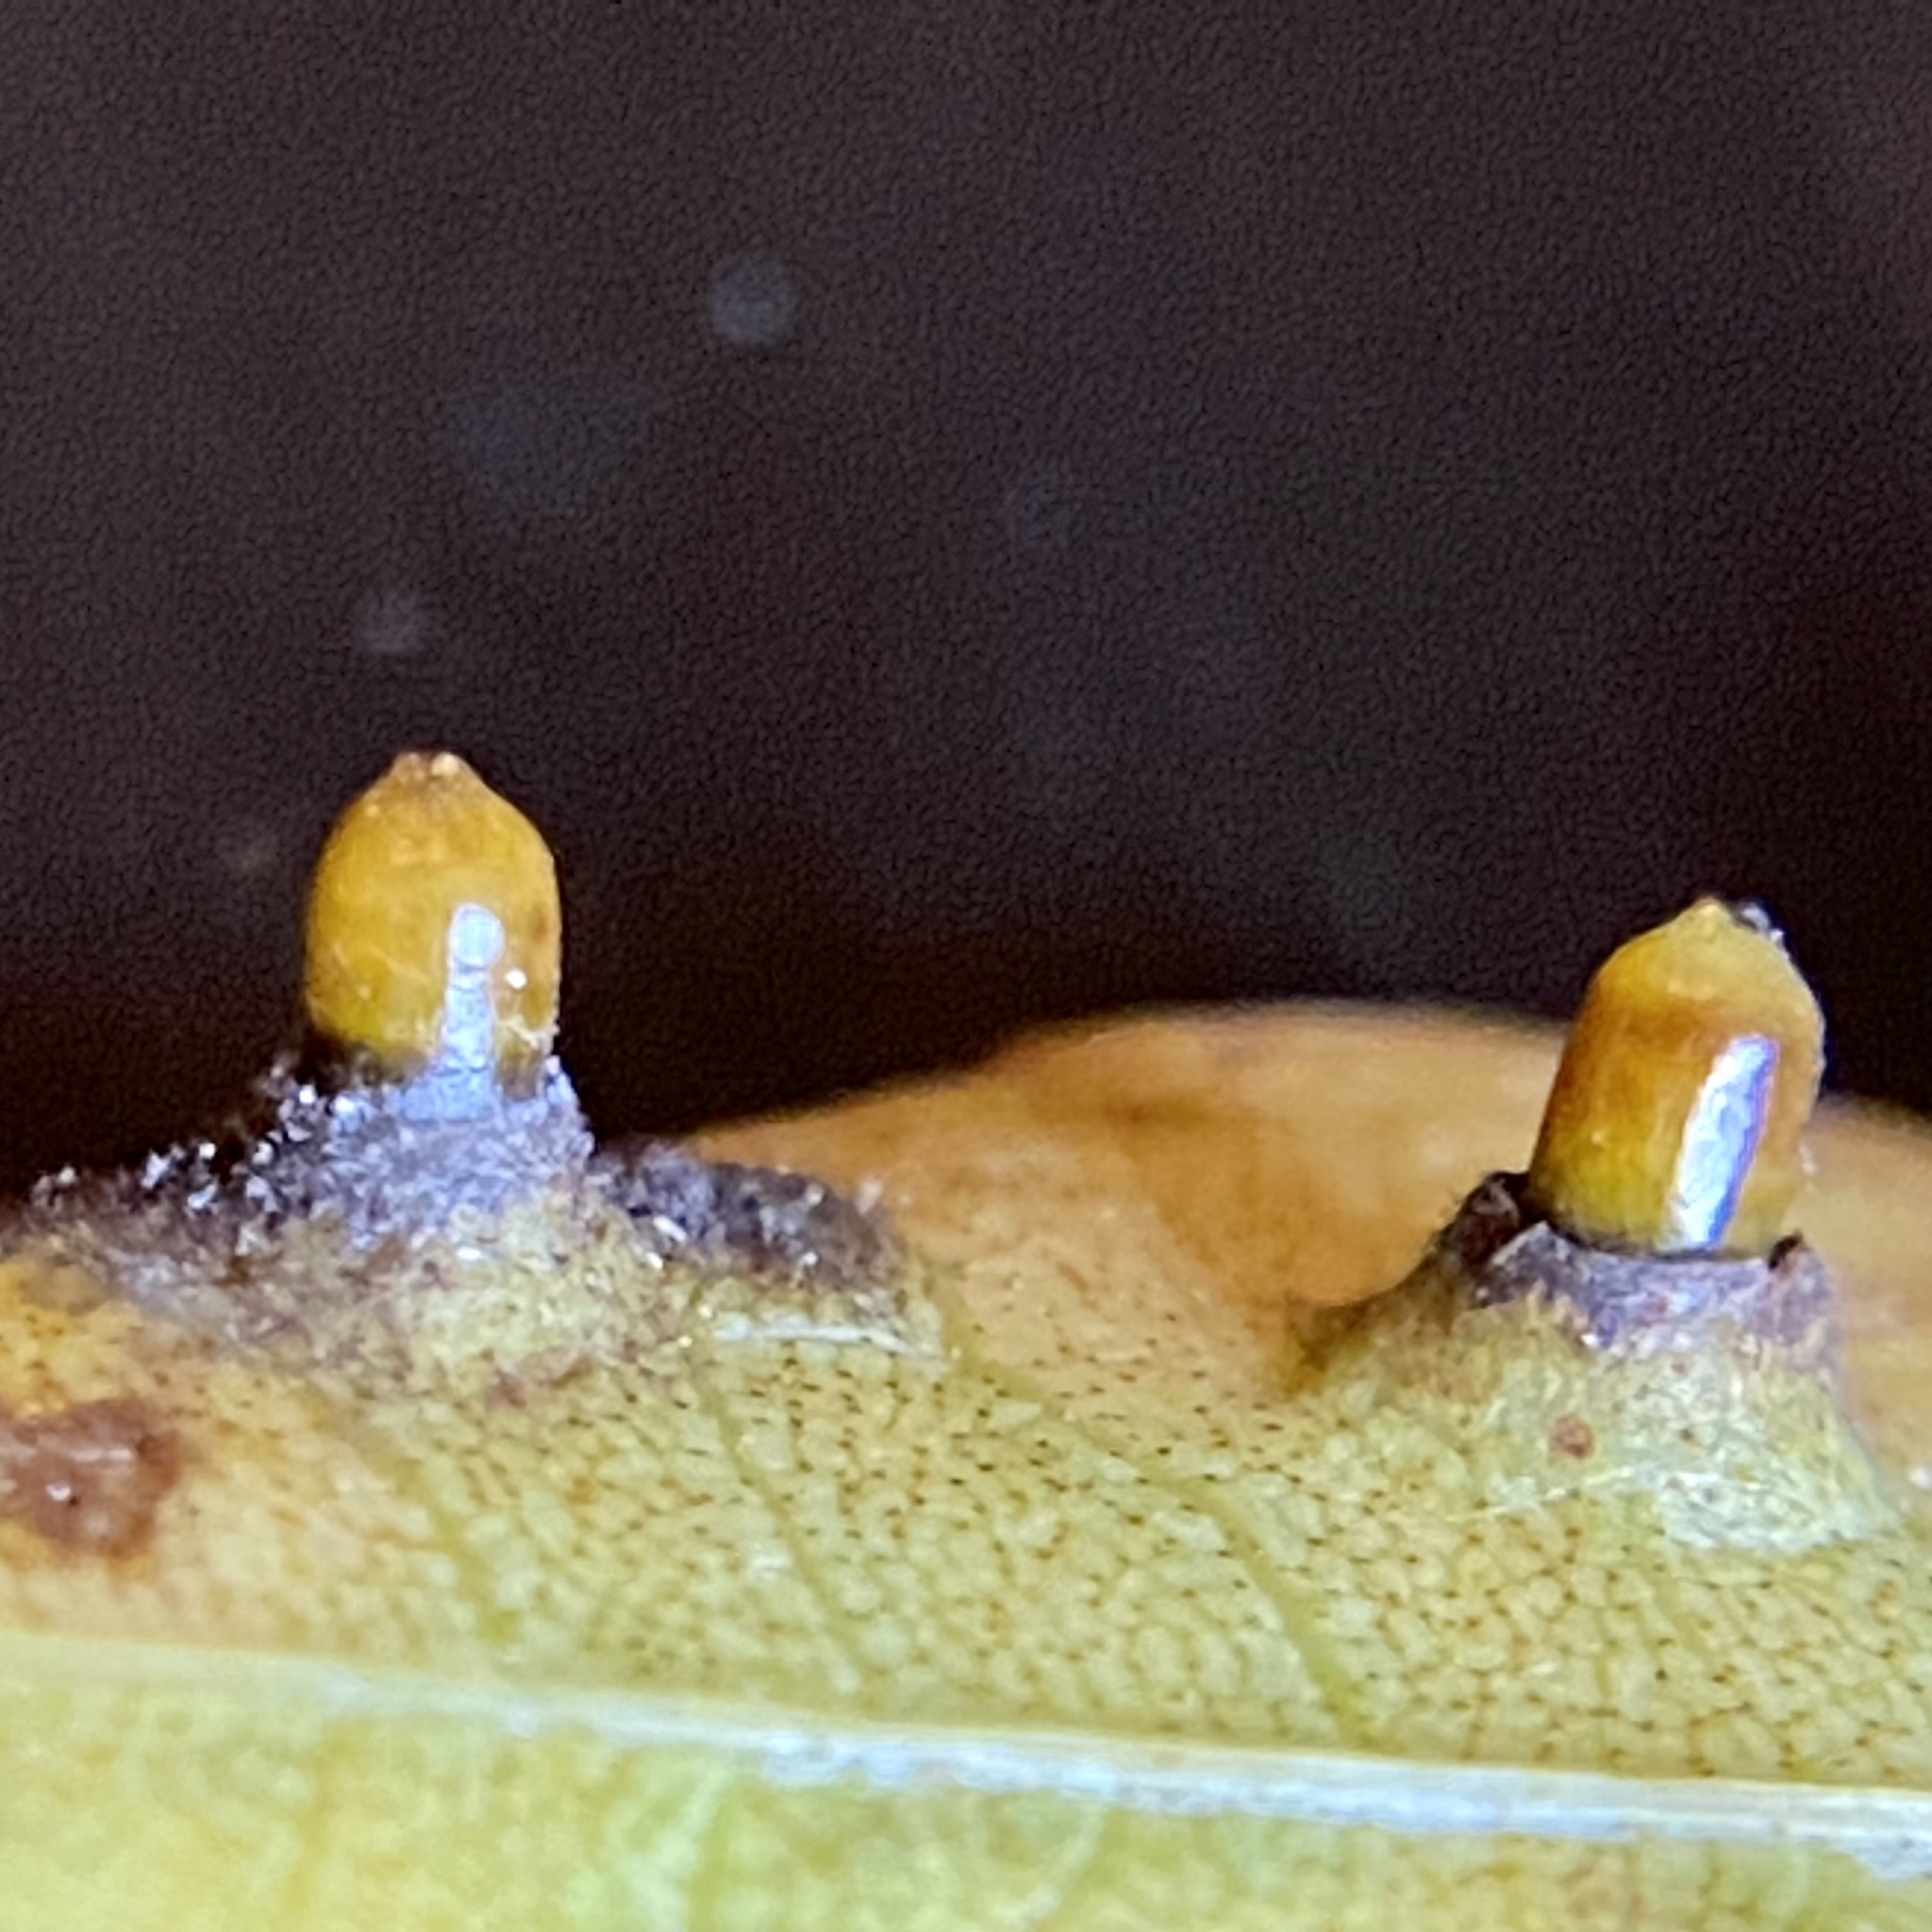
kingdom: Animalia
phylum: Arthropoda
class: Insecta
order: Diptera
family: Cecidomyiidae
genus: Caryomyia
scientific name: Caryomyia tubicola
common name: Hickory bullet gall midge
